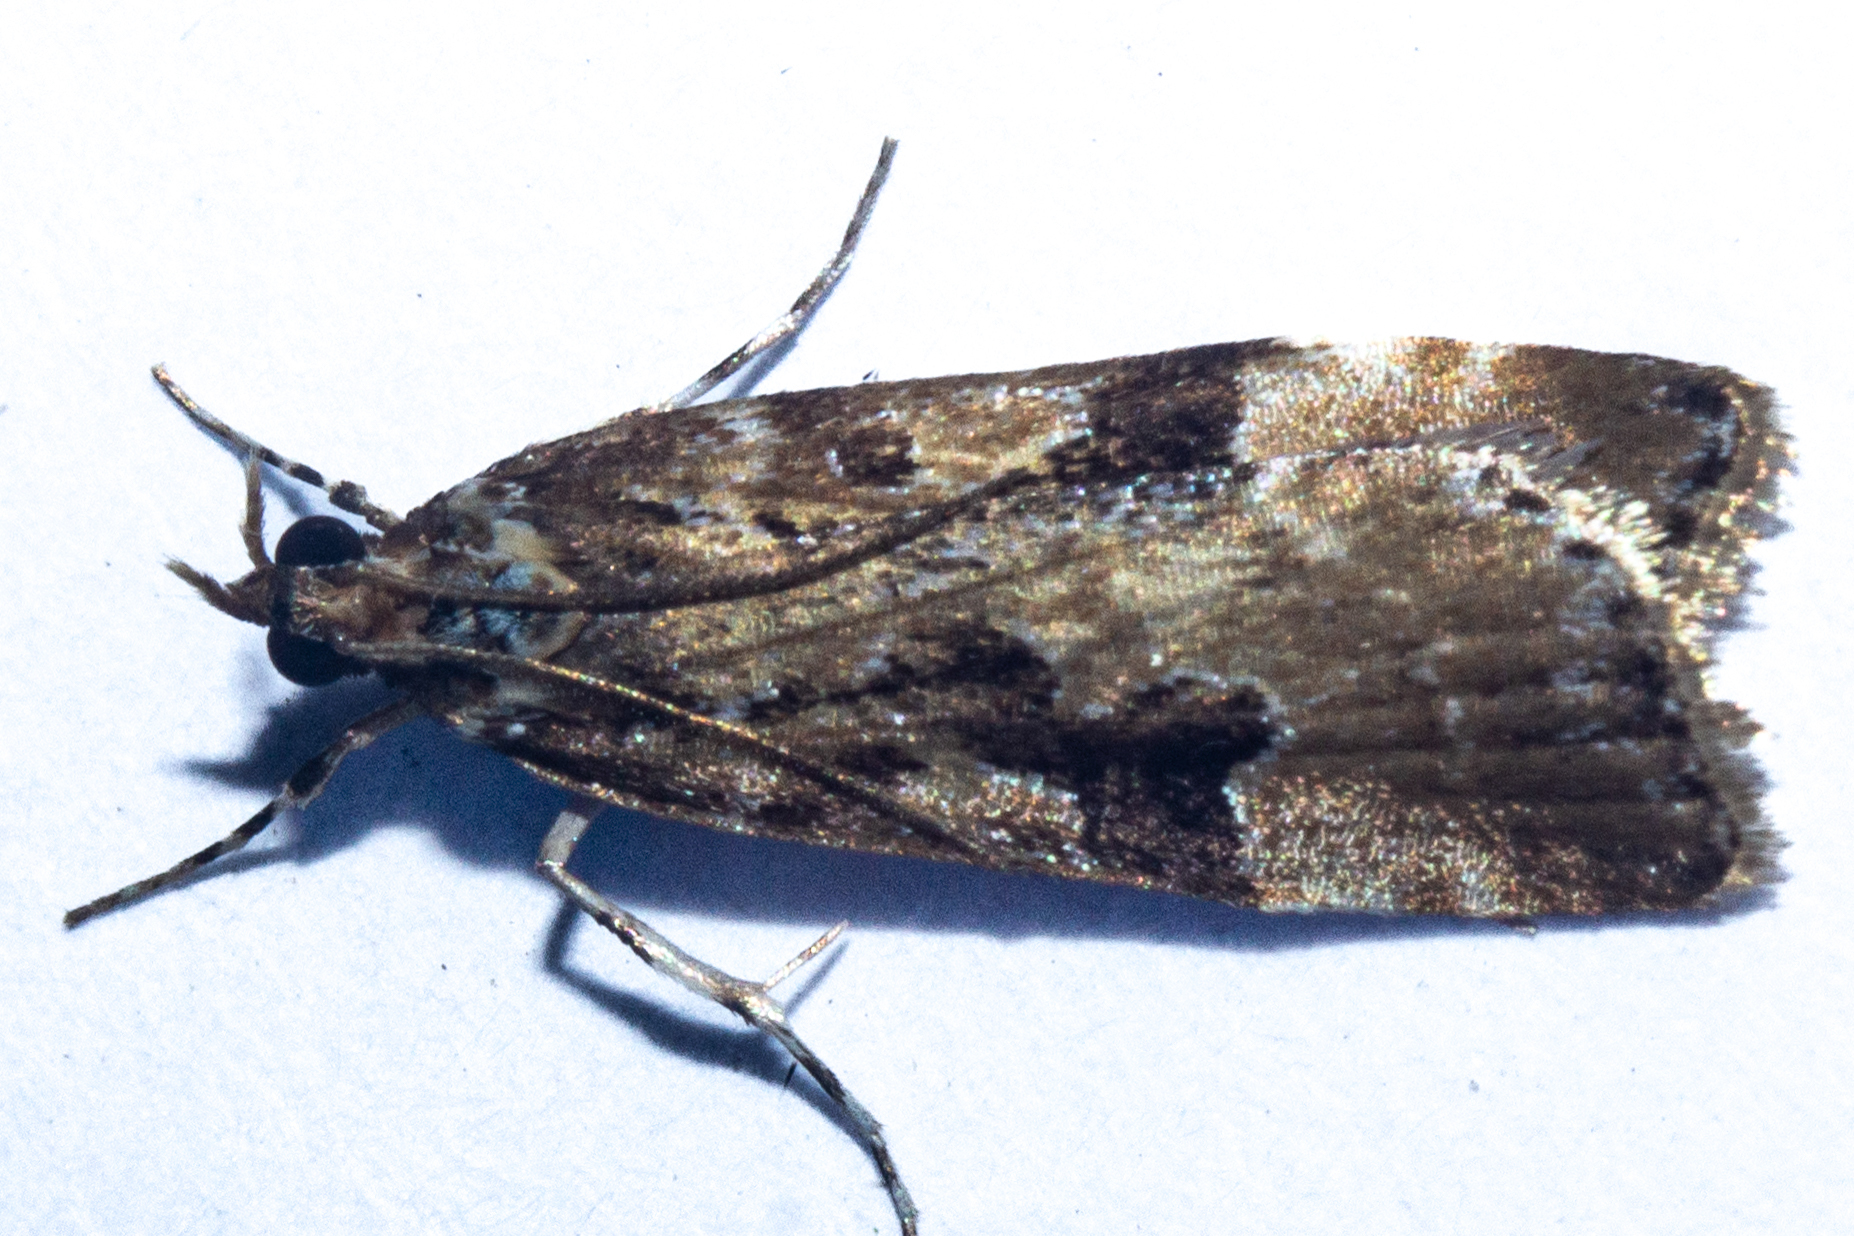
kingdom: Animalia
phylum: Arthropoda
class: Insecta
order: Lepidoptera
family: Crambidae
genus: Scoparia
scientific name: Scoparia ustimacula
